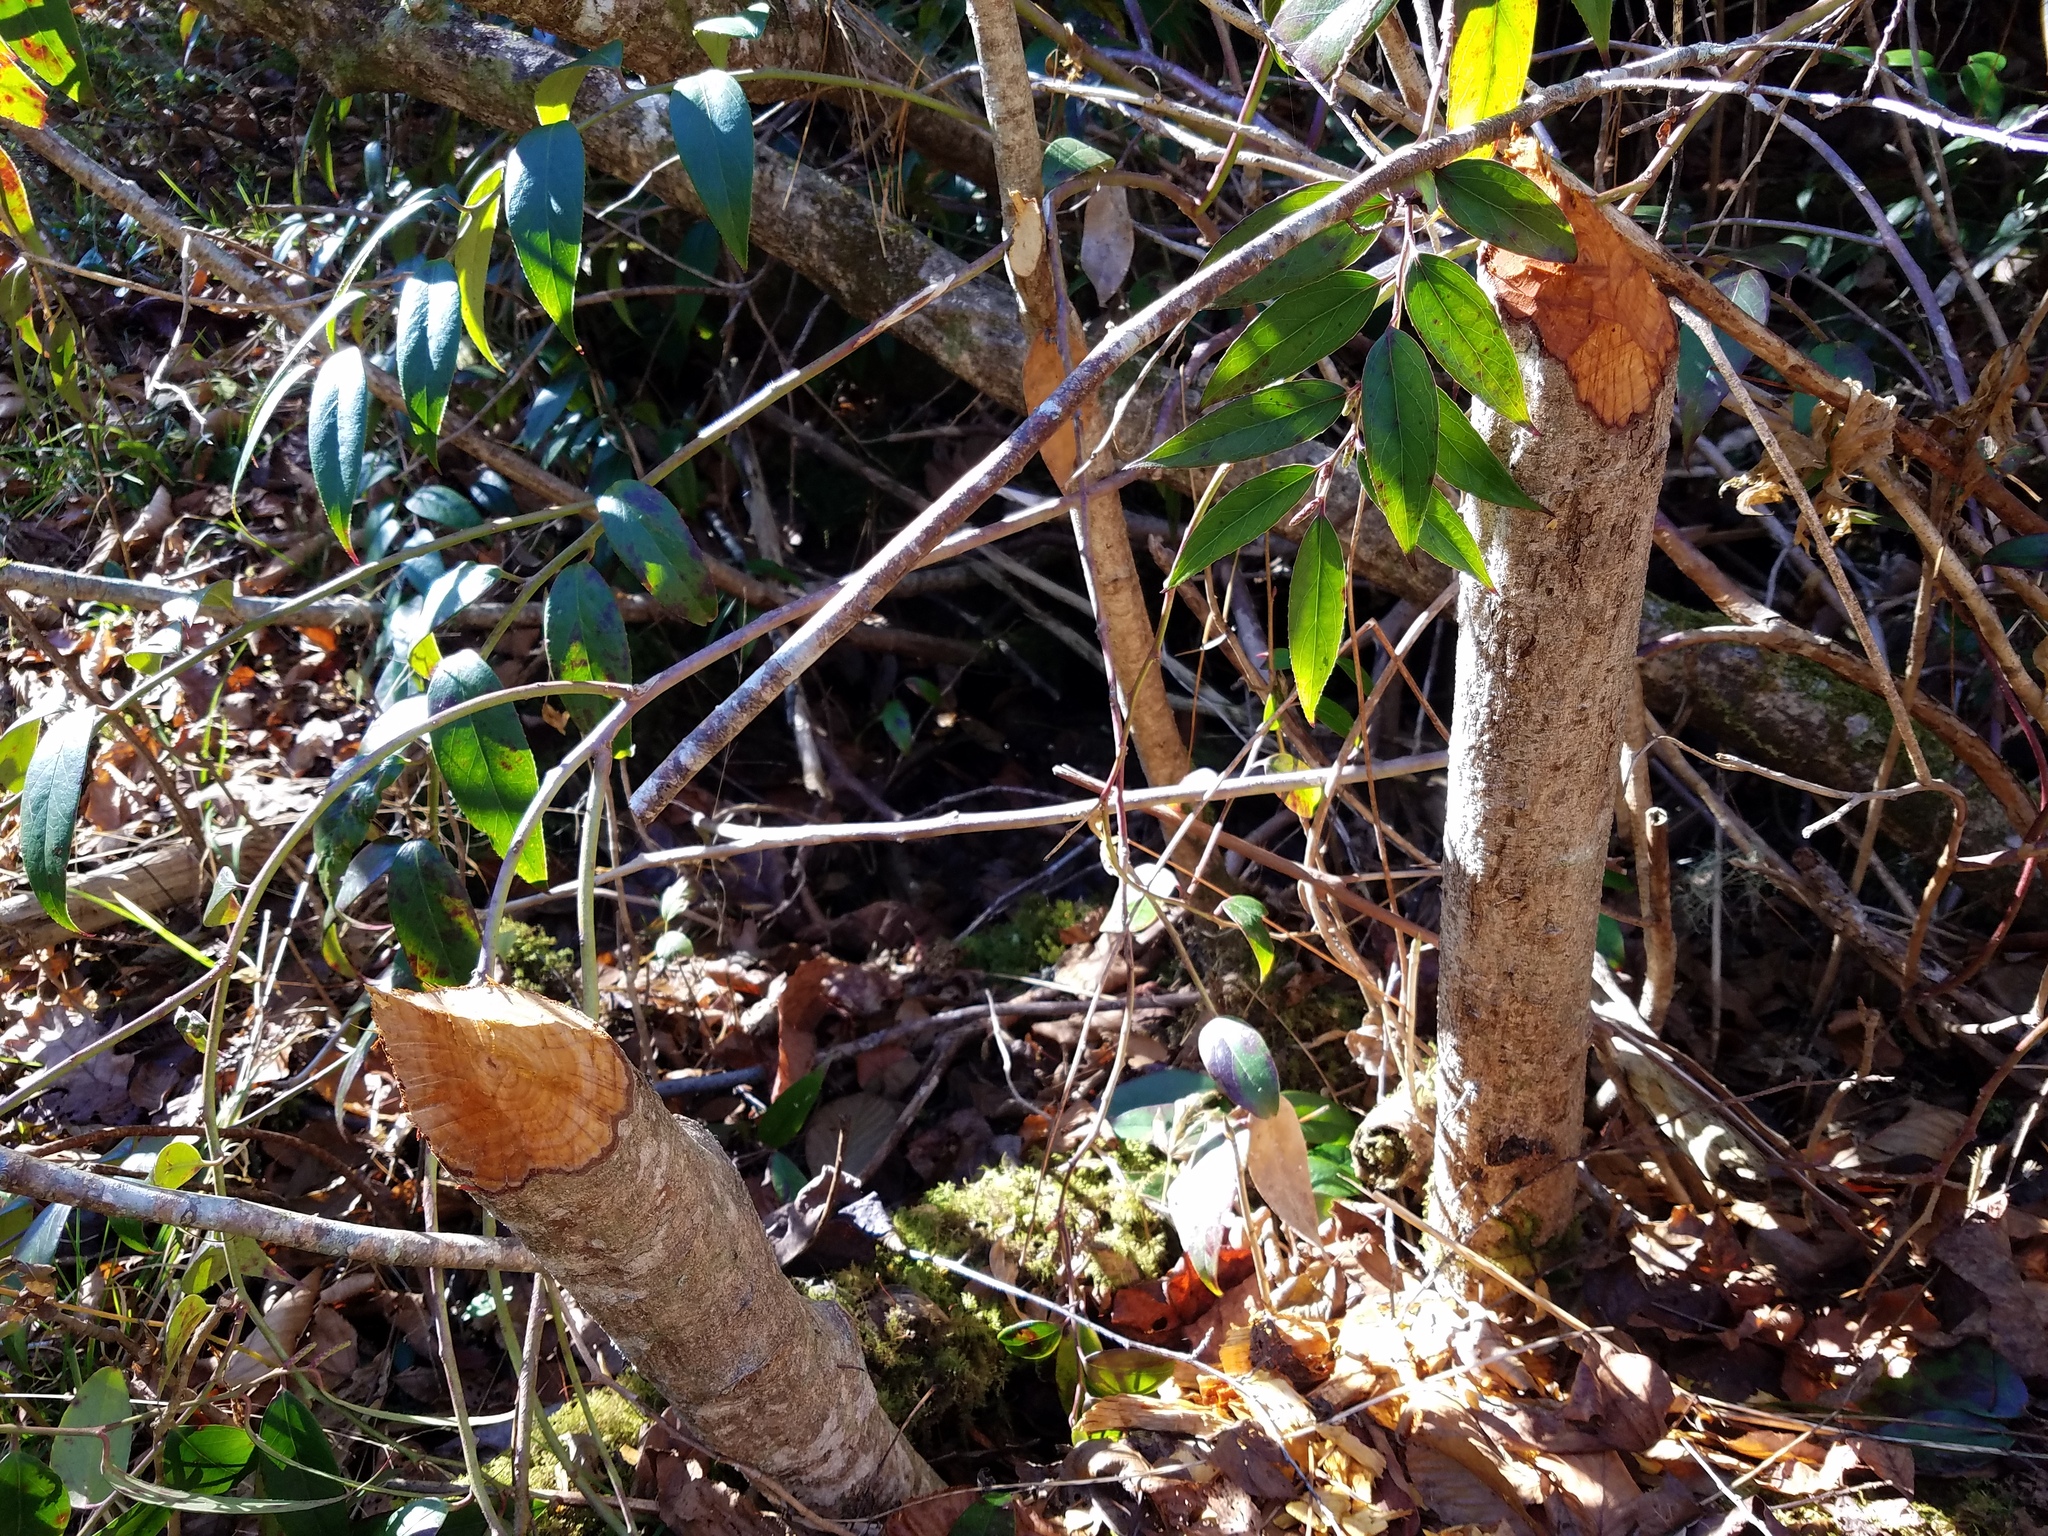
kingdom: Animalia
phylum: Chordata
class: Mammalia
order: Rodentia
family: Castoridae
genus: Castor
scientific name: Castor canadensis
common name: American beaver
